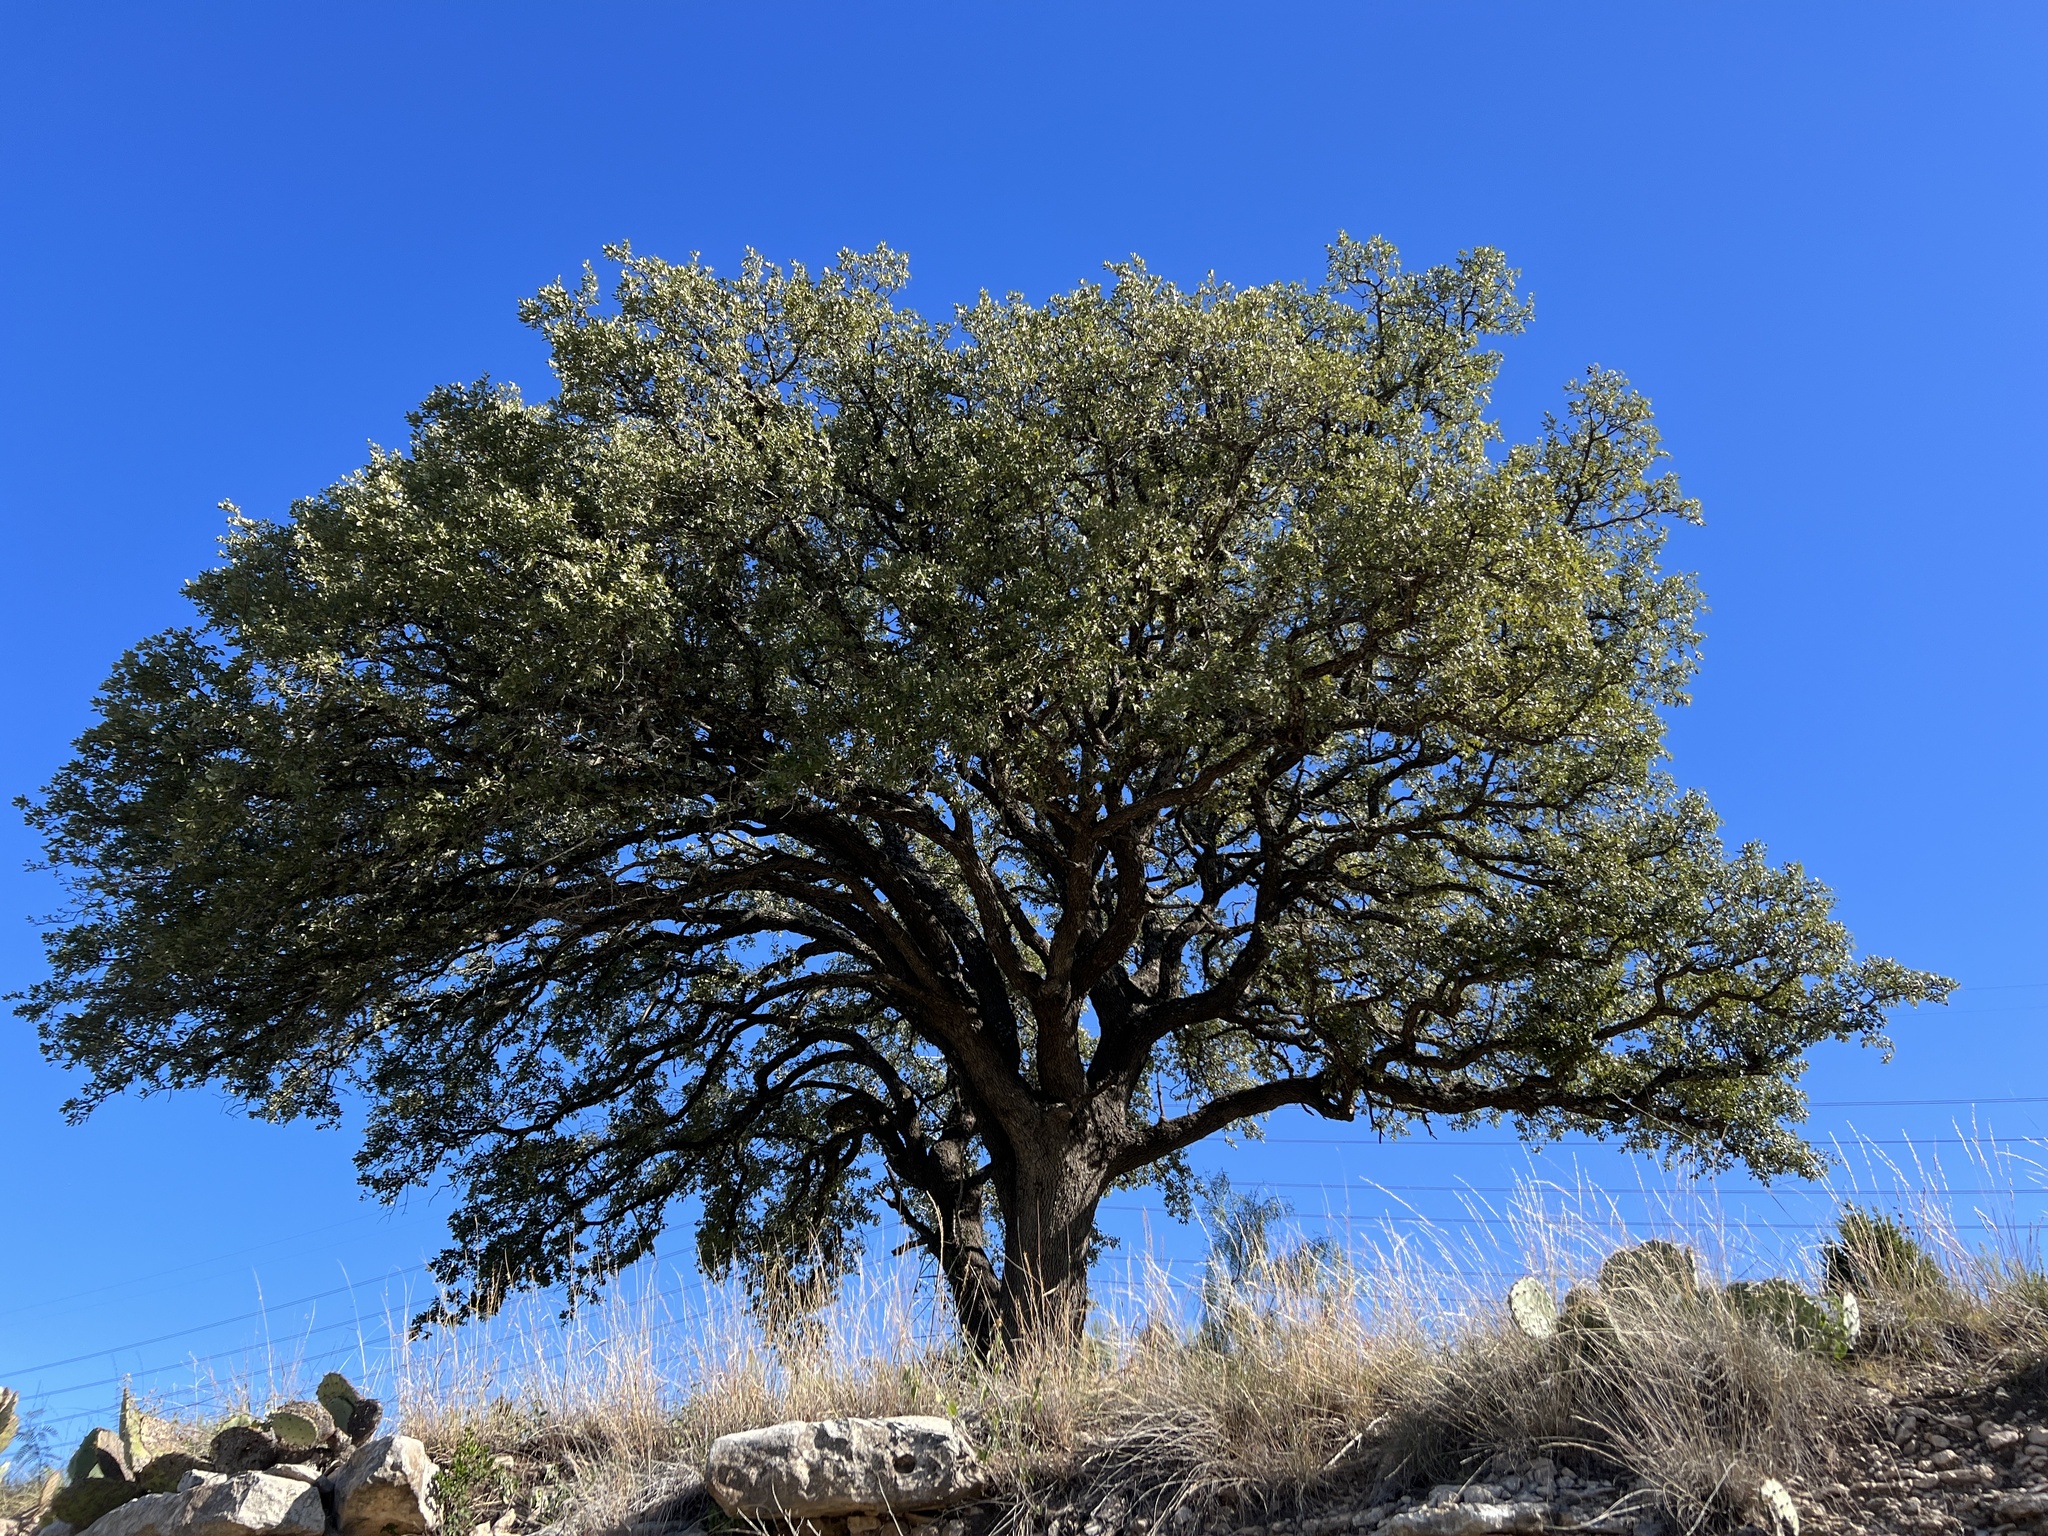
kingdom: Plantae
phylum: Tracheophyta
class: Magnoliopsida
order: Fagales
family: Fagaceae
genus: Quercus
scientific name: Quercus fusiformis
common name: Texas live oak
